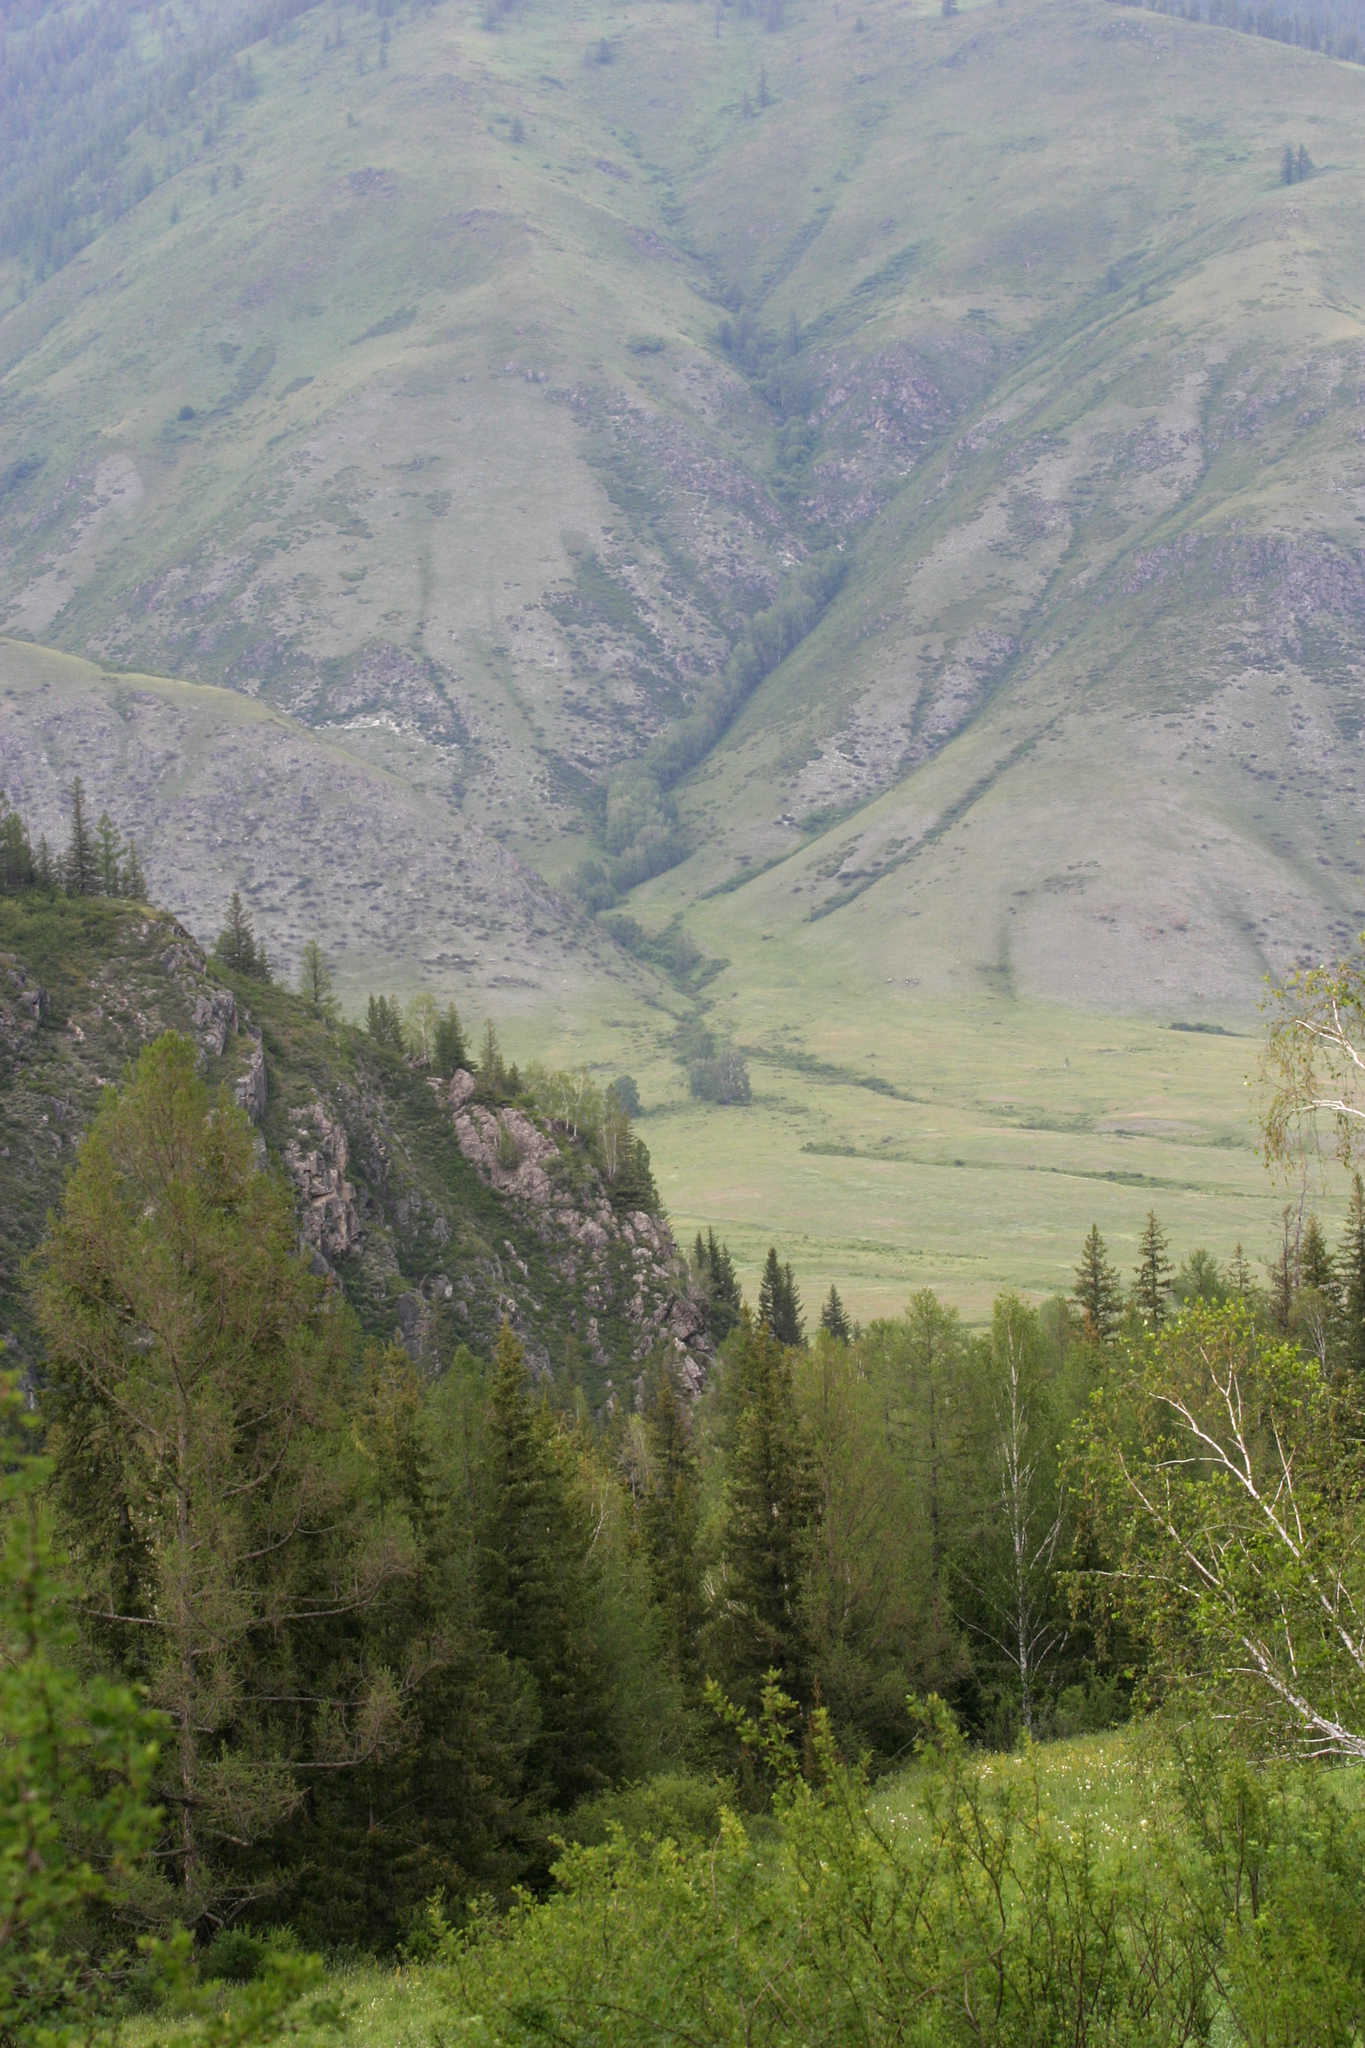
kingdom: Plantae
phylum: Tracheophyta
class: Pinopsida
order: Pinales
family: Pinaceae
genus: Larix
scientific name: Larix sibirica
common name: Siberian larch
